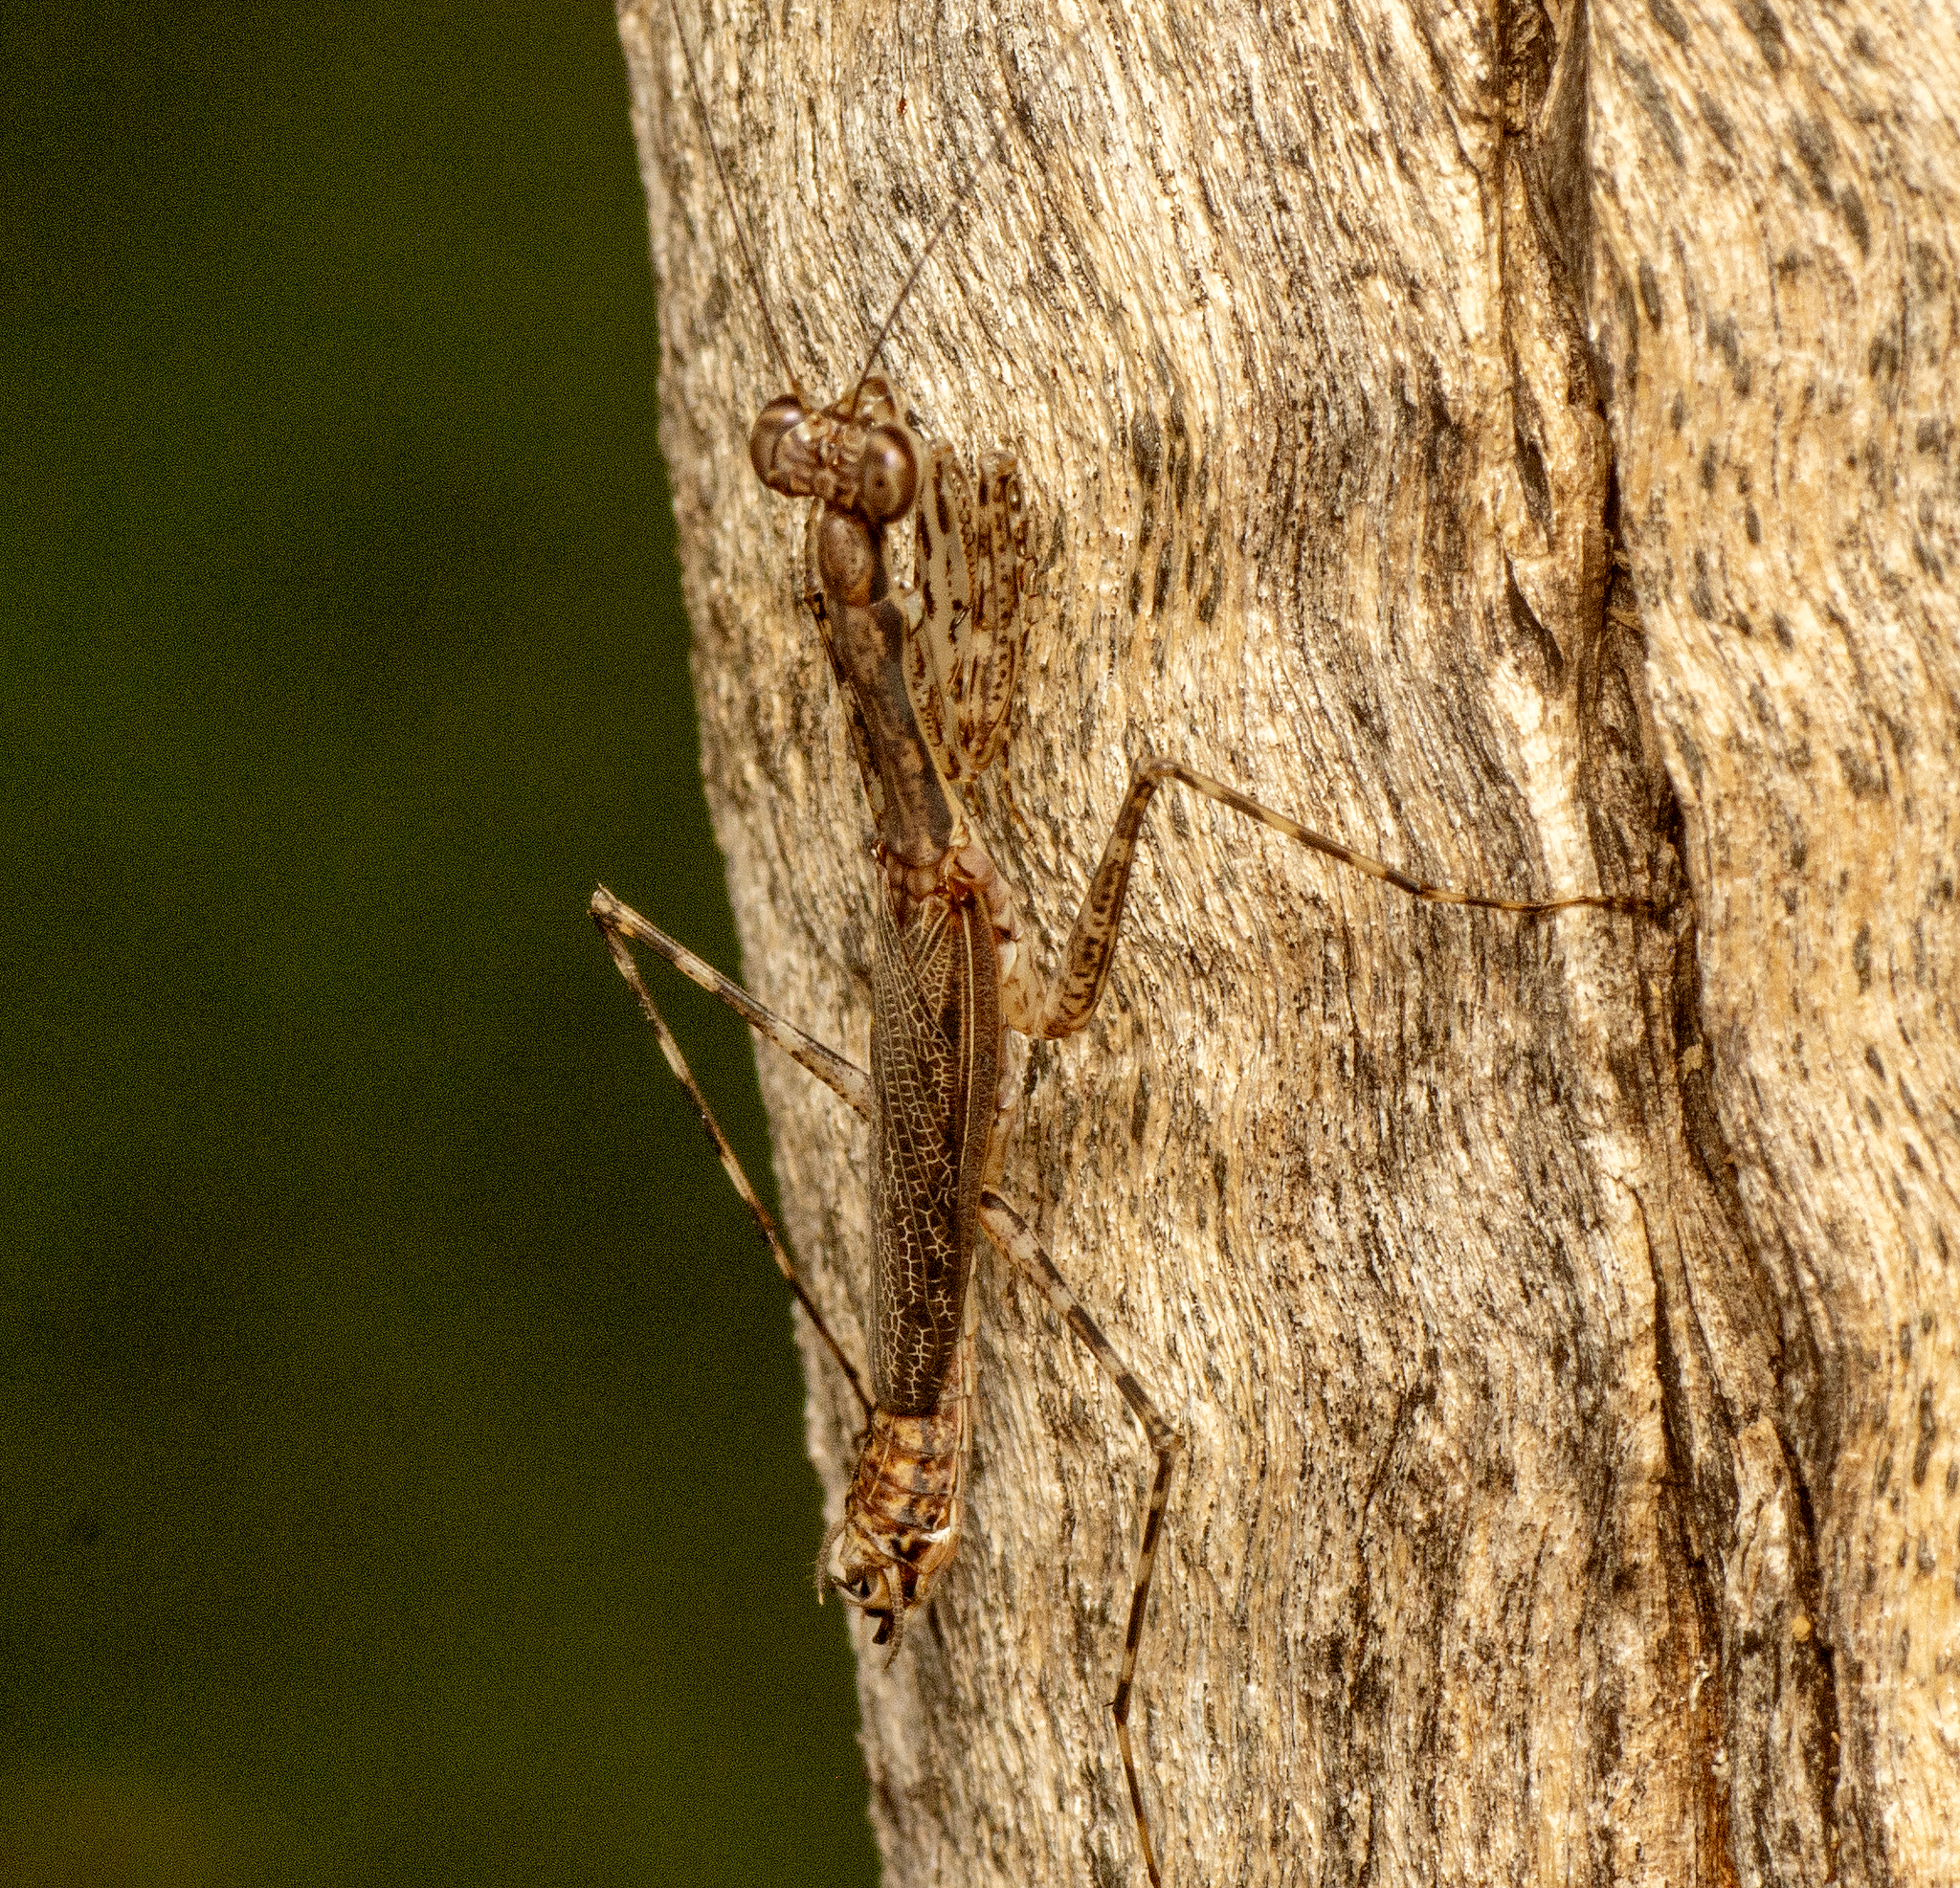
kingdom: Animalia
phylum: Arthropoda
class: Insecta
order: Mantodea
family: Nanomantidae
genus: Ciulfina
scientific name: Ciulfina ianrichardi
